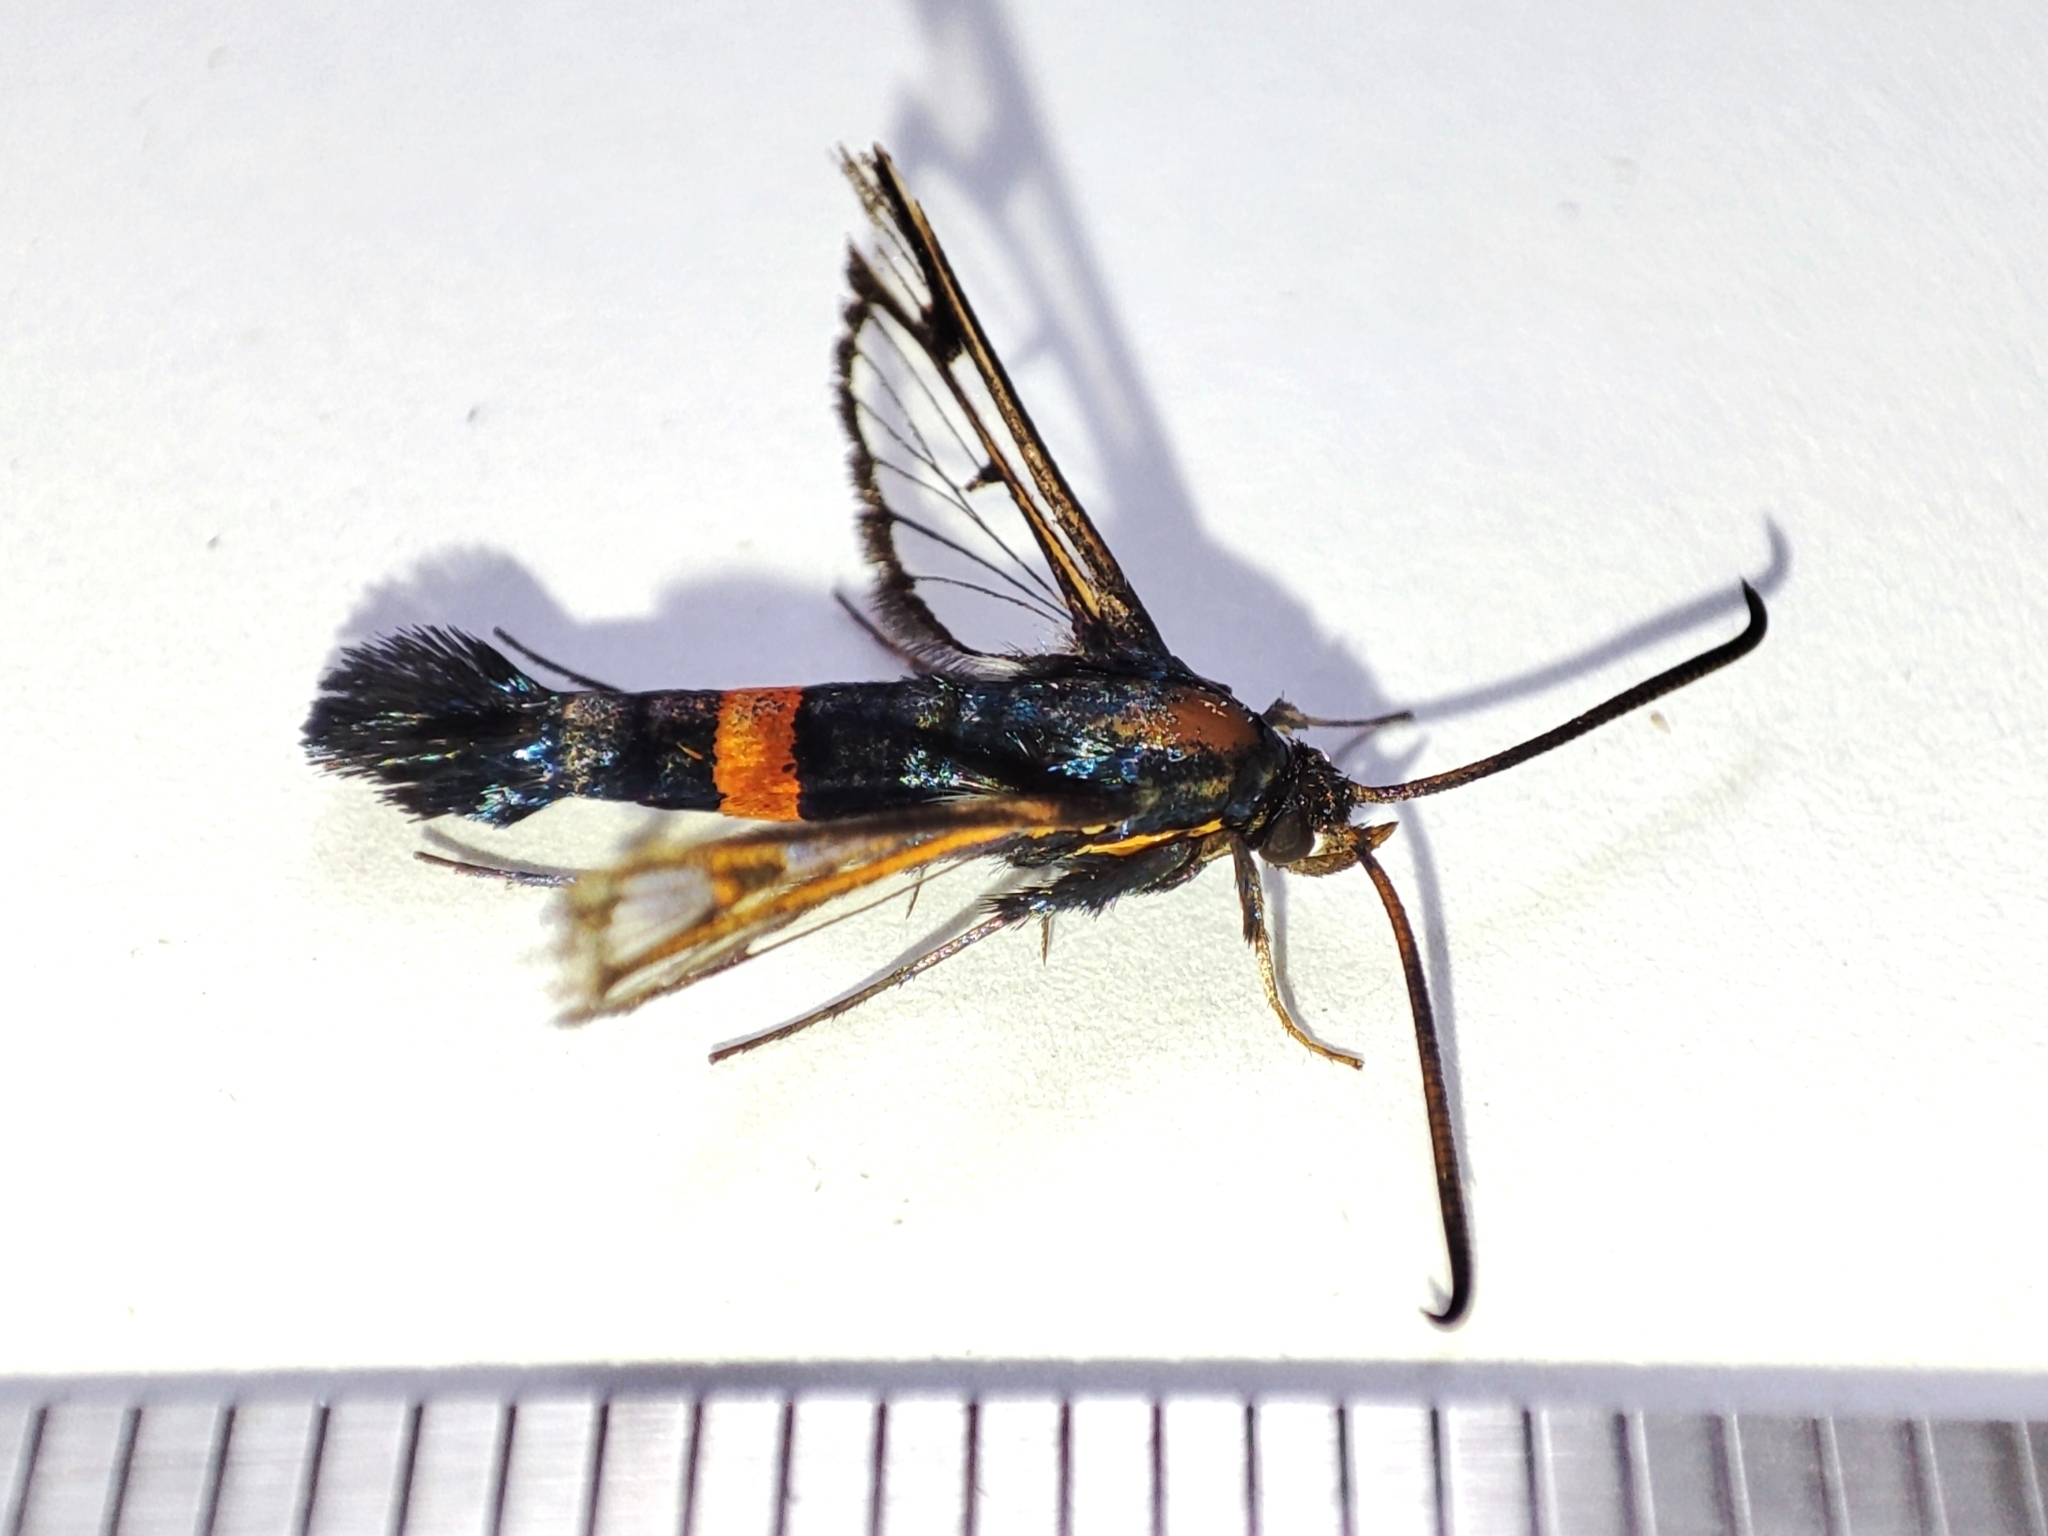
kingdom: Animalia
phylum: Arthropoda
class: Insecta
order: Lepidoptera
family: Sesiidae
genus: Synanthedon
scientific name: Synanthedon myopaeformis
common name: Red-belted clearwing
